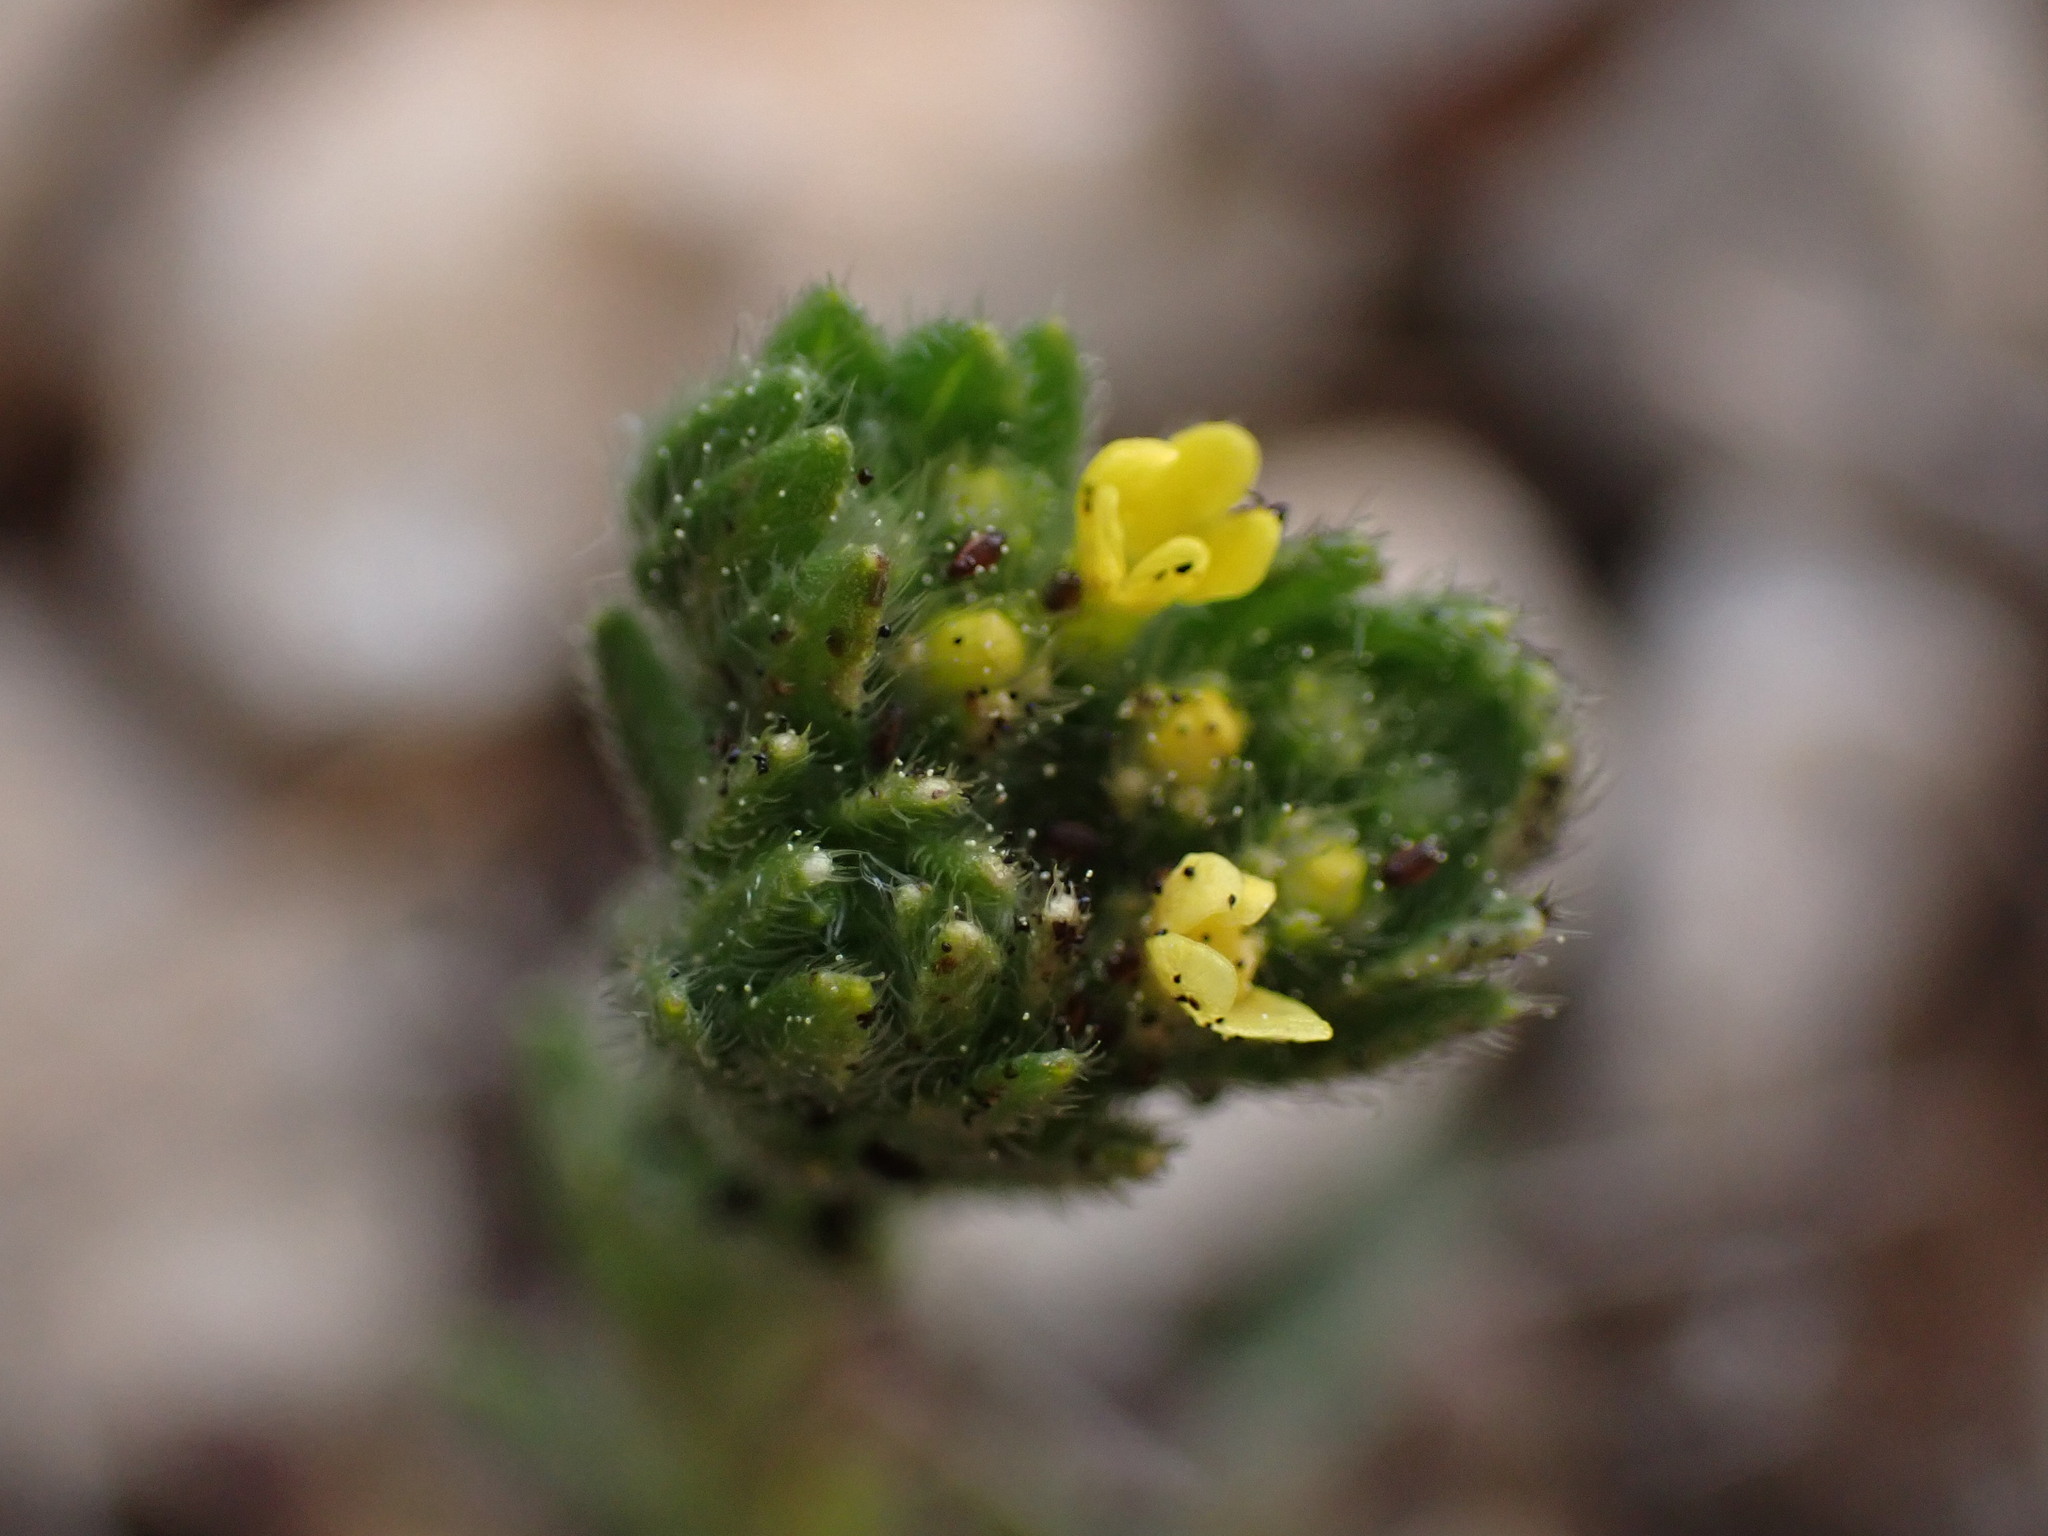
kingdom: Plantae
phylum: Tracheophyta
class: Magnoliopsida
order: Boraginales
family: Boraginaceae
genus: Neatostema
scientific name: Neatostema apulum
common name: Hairy sheepweed
